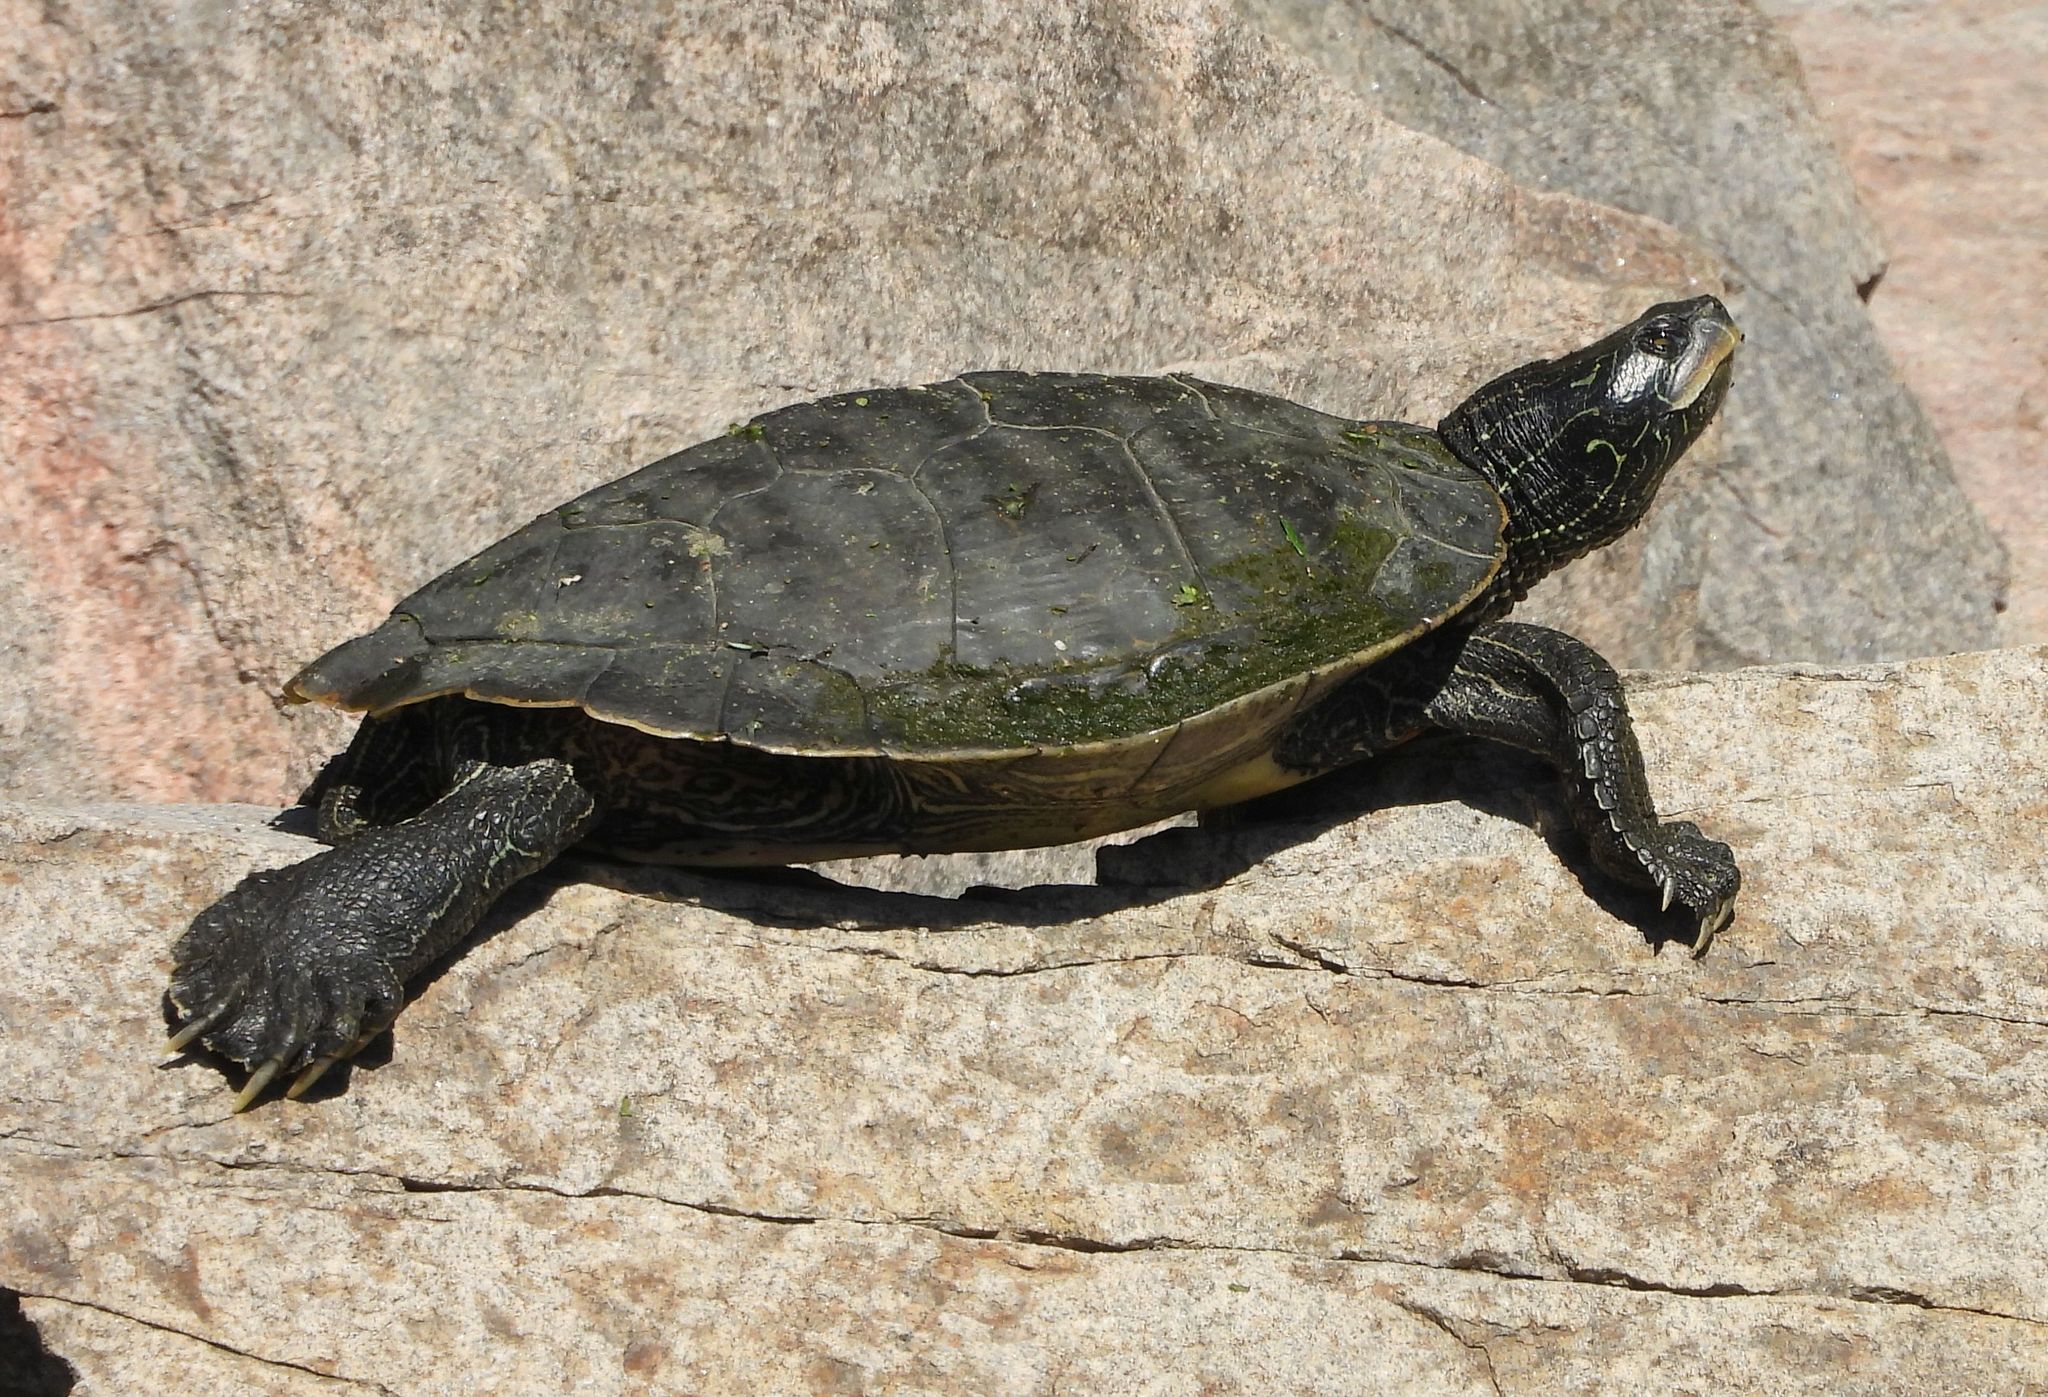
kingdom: Animalia
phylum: Chordata
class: Testudines
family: Emydidae
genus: Graptemys
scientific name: Graptemys geographica
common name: Common map turtle
